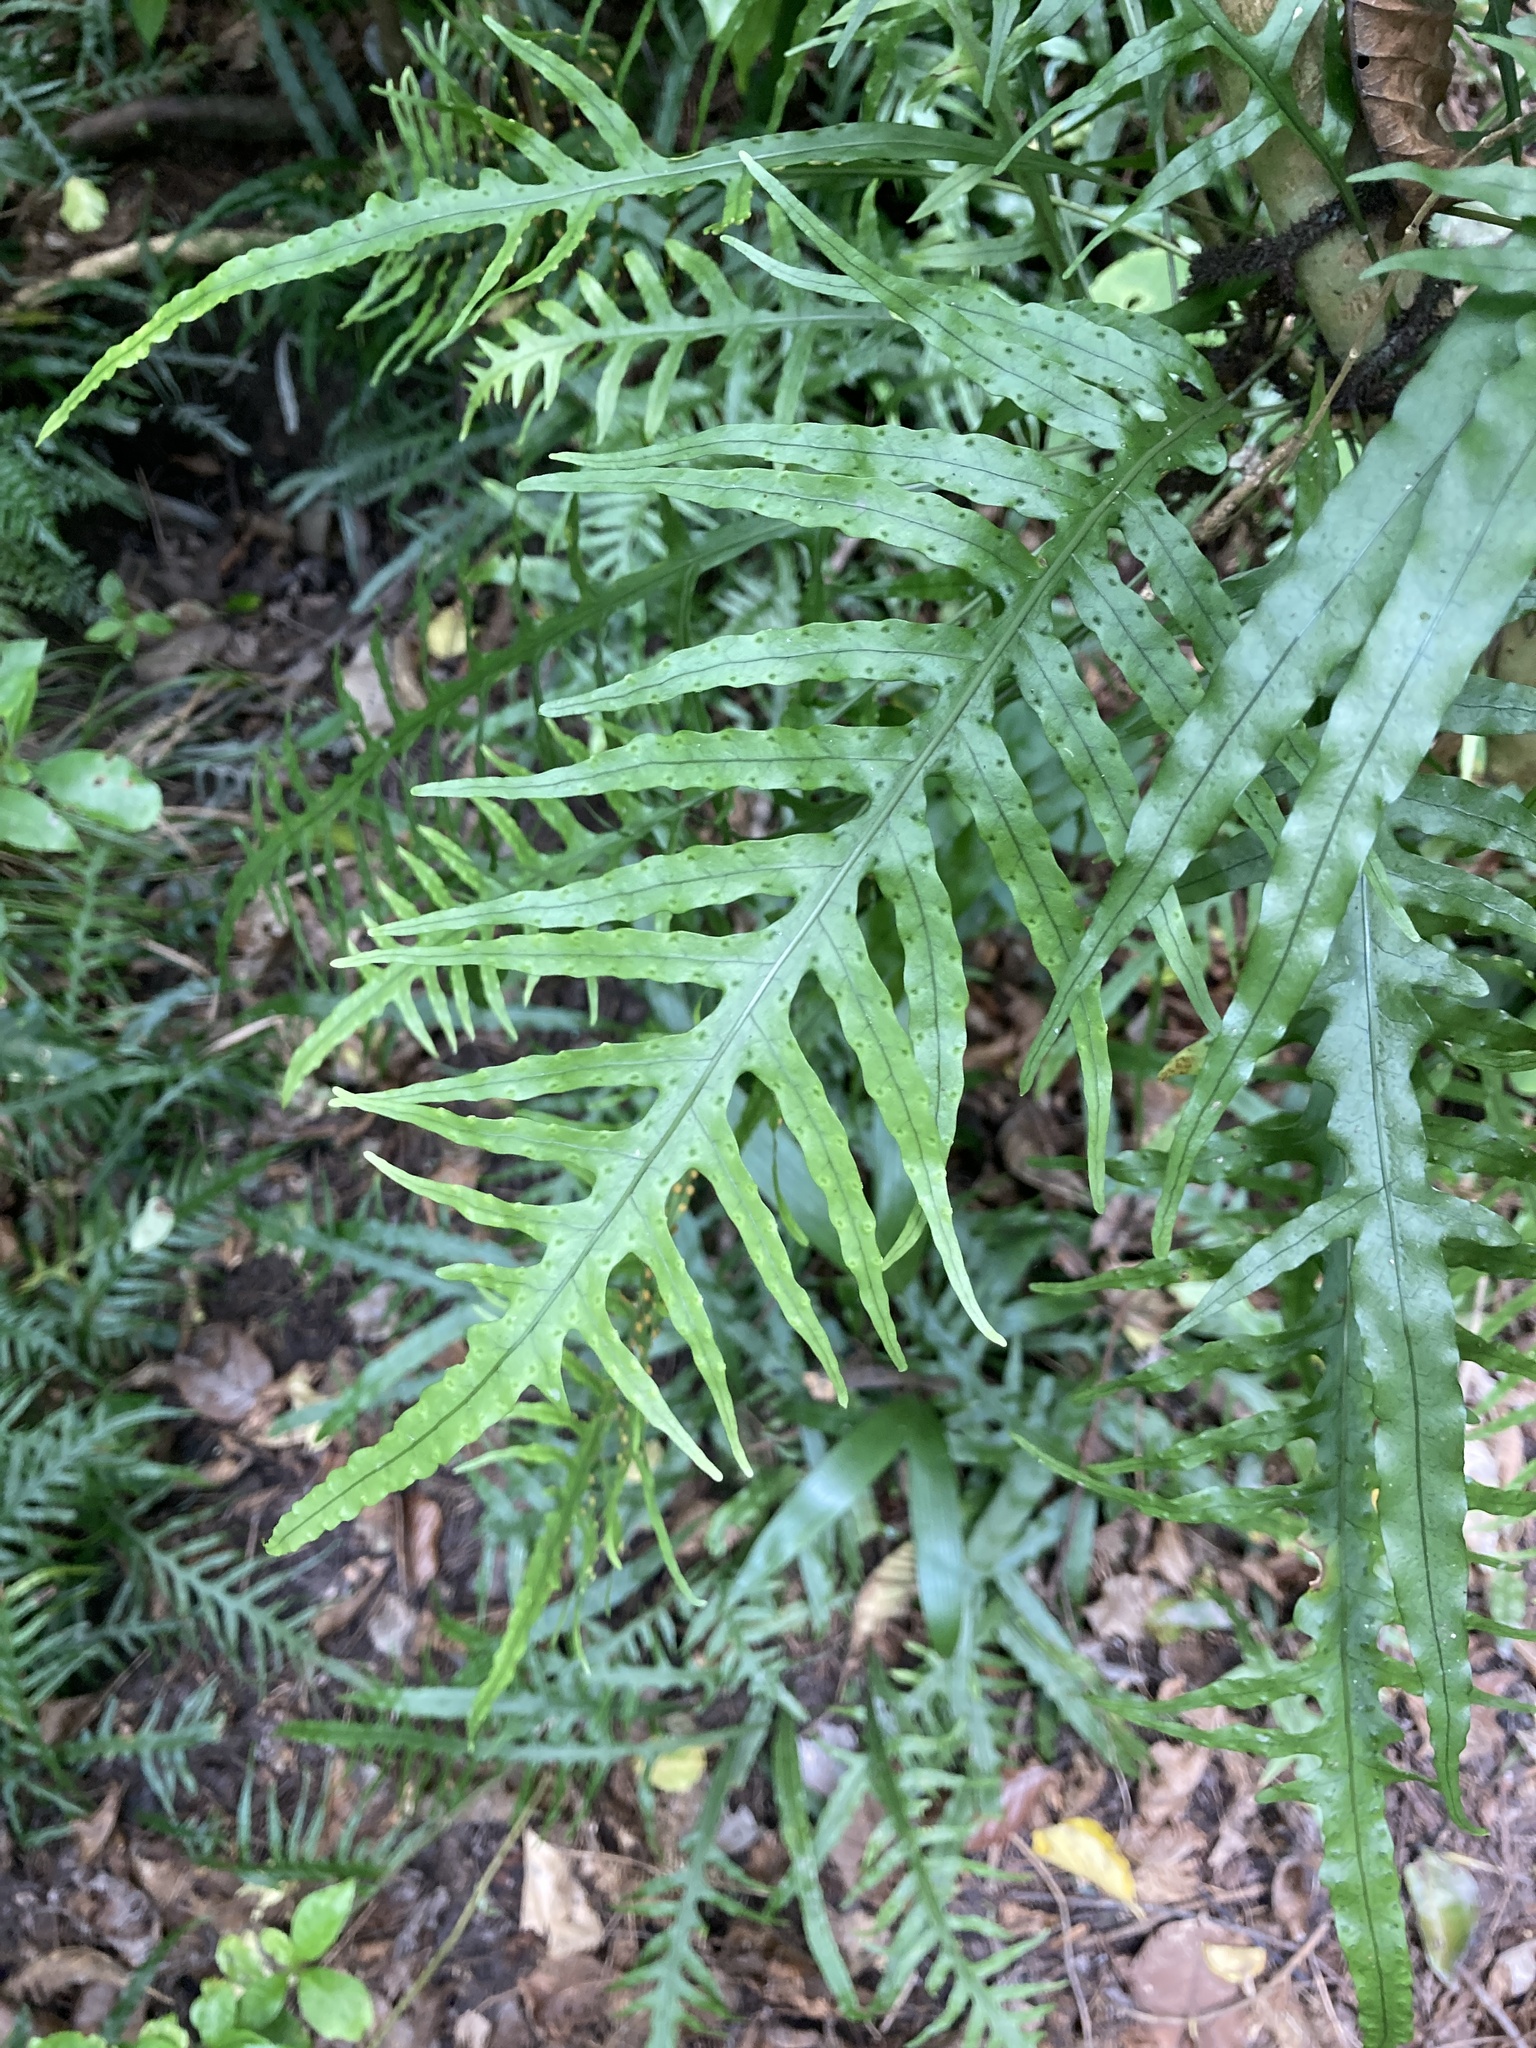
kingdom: Plantae
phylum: Tracheophyta
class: Polypodiopsida
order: Polypodiales
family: Polypodiaceae
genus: Lecanopteris
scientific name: Lecanopteris scandens
